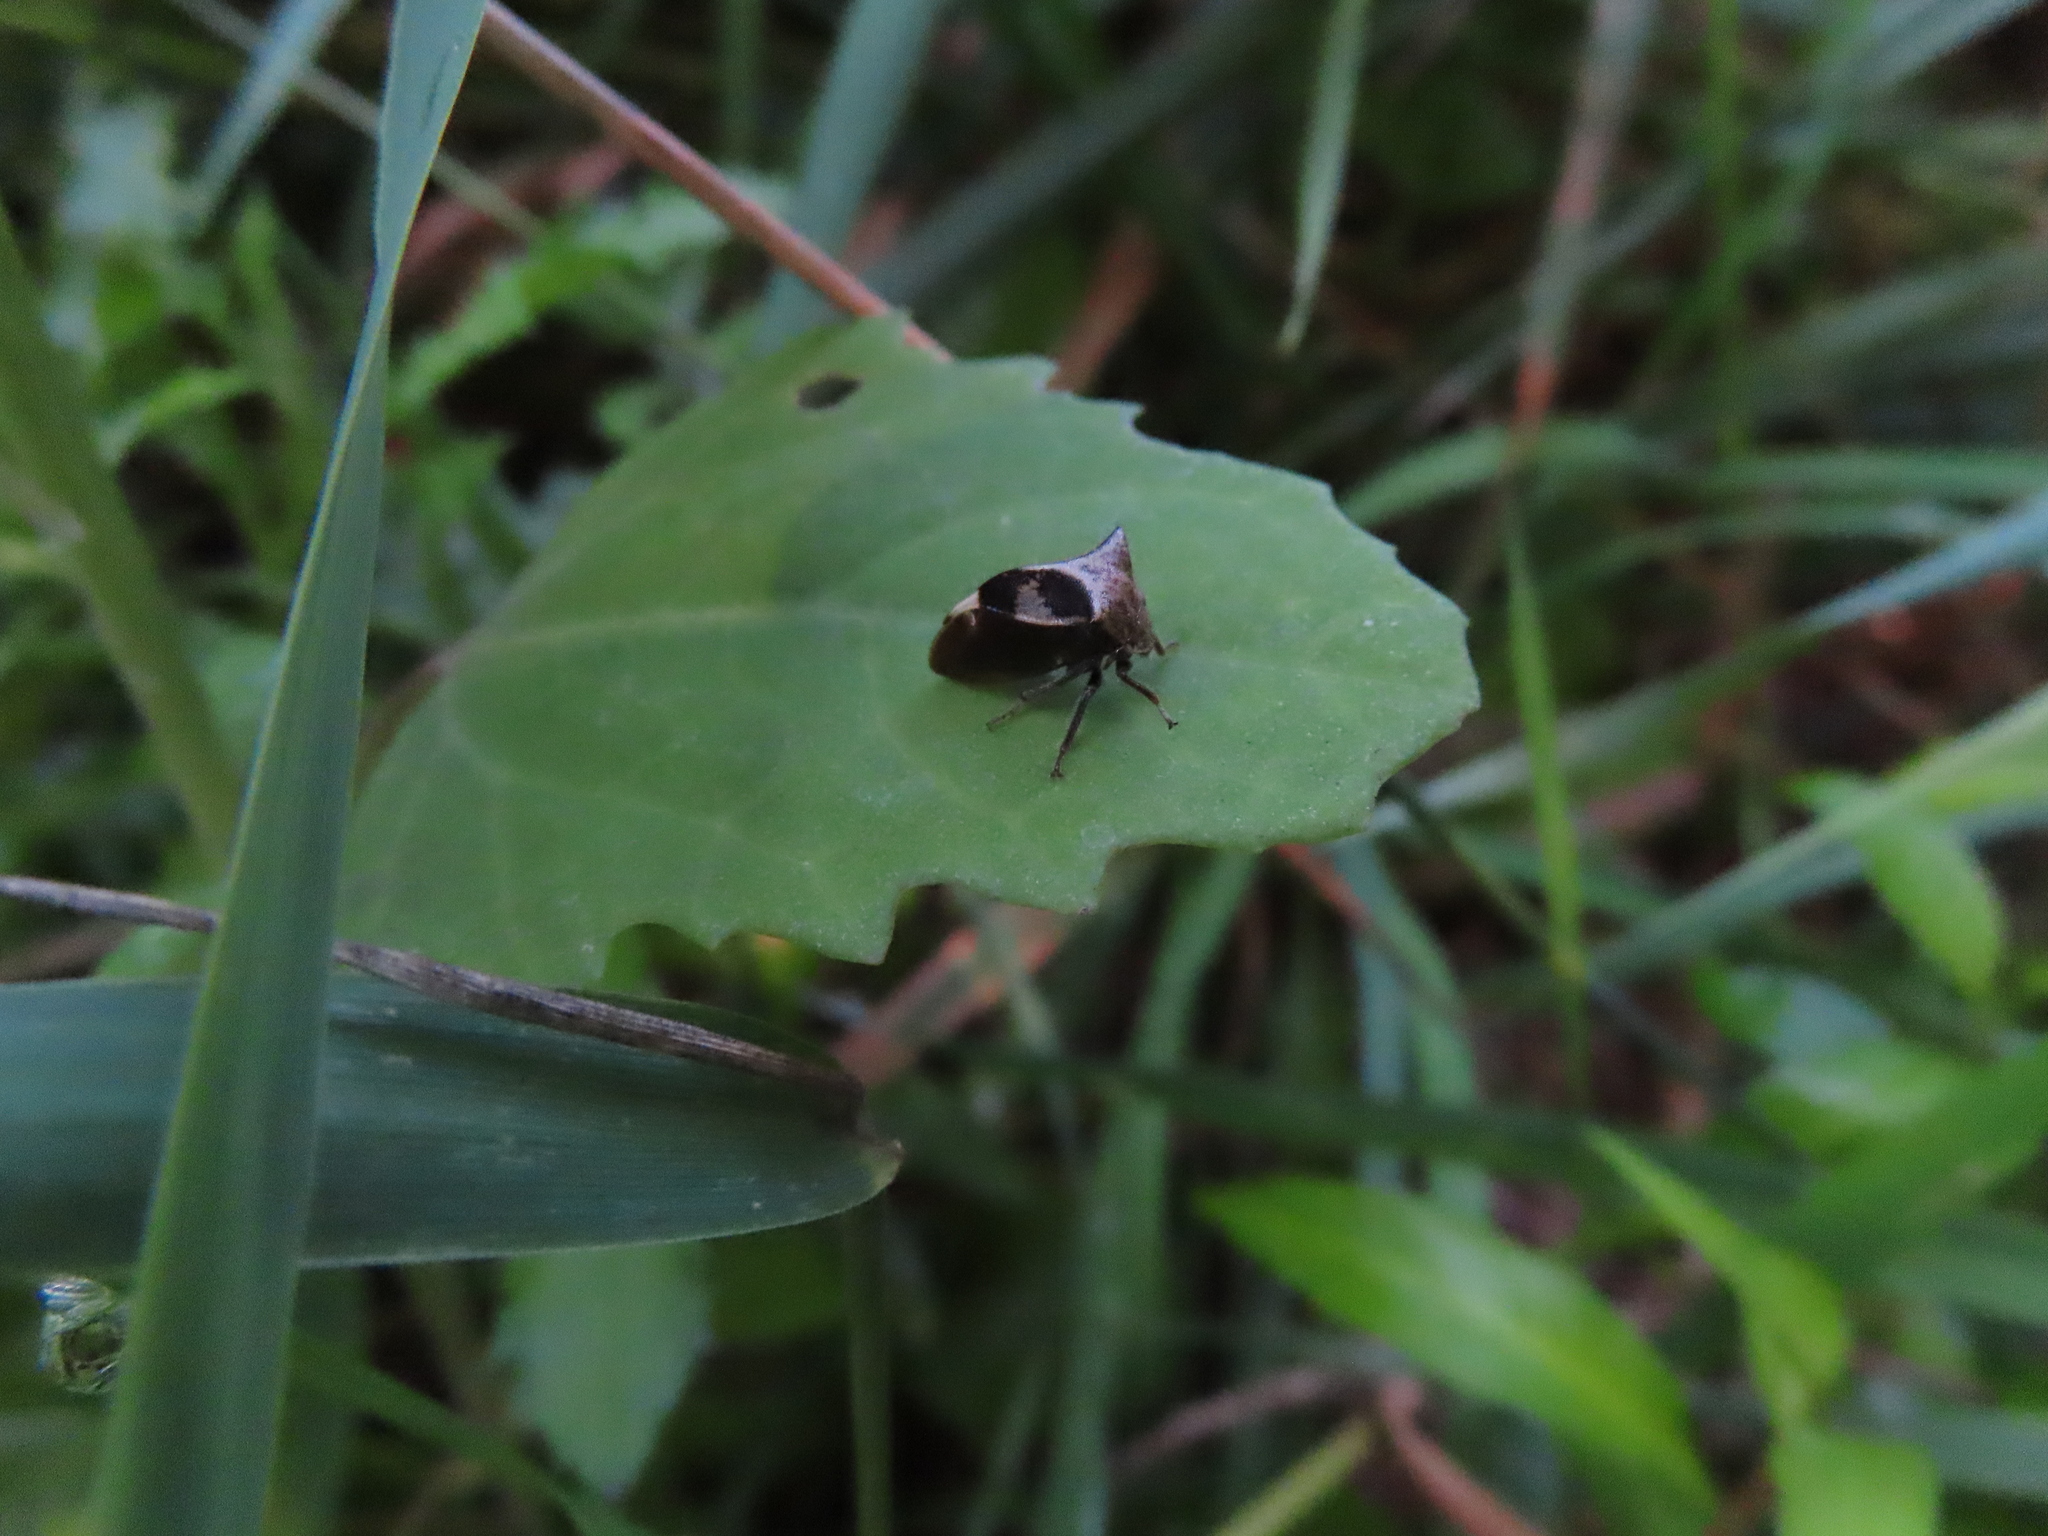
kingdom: Animalia
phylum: Arthropoda
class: Insecta
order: Hemiptera
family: Membracidae
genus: Stictocephala
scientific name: Stictocephala diceros
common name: Two-horned treehopper
